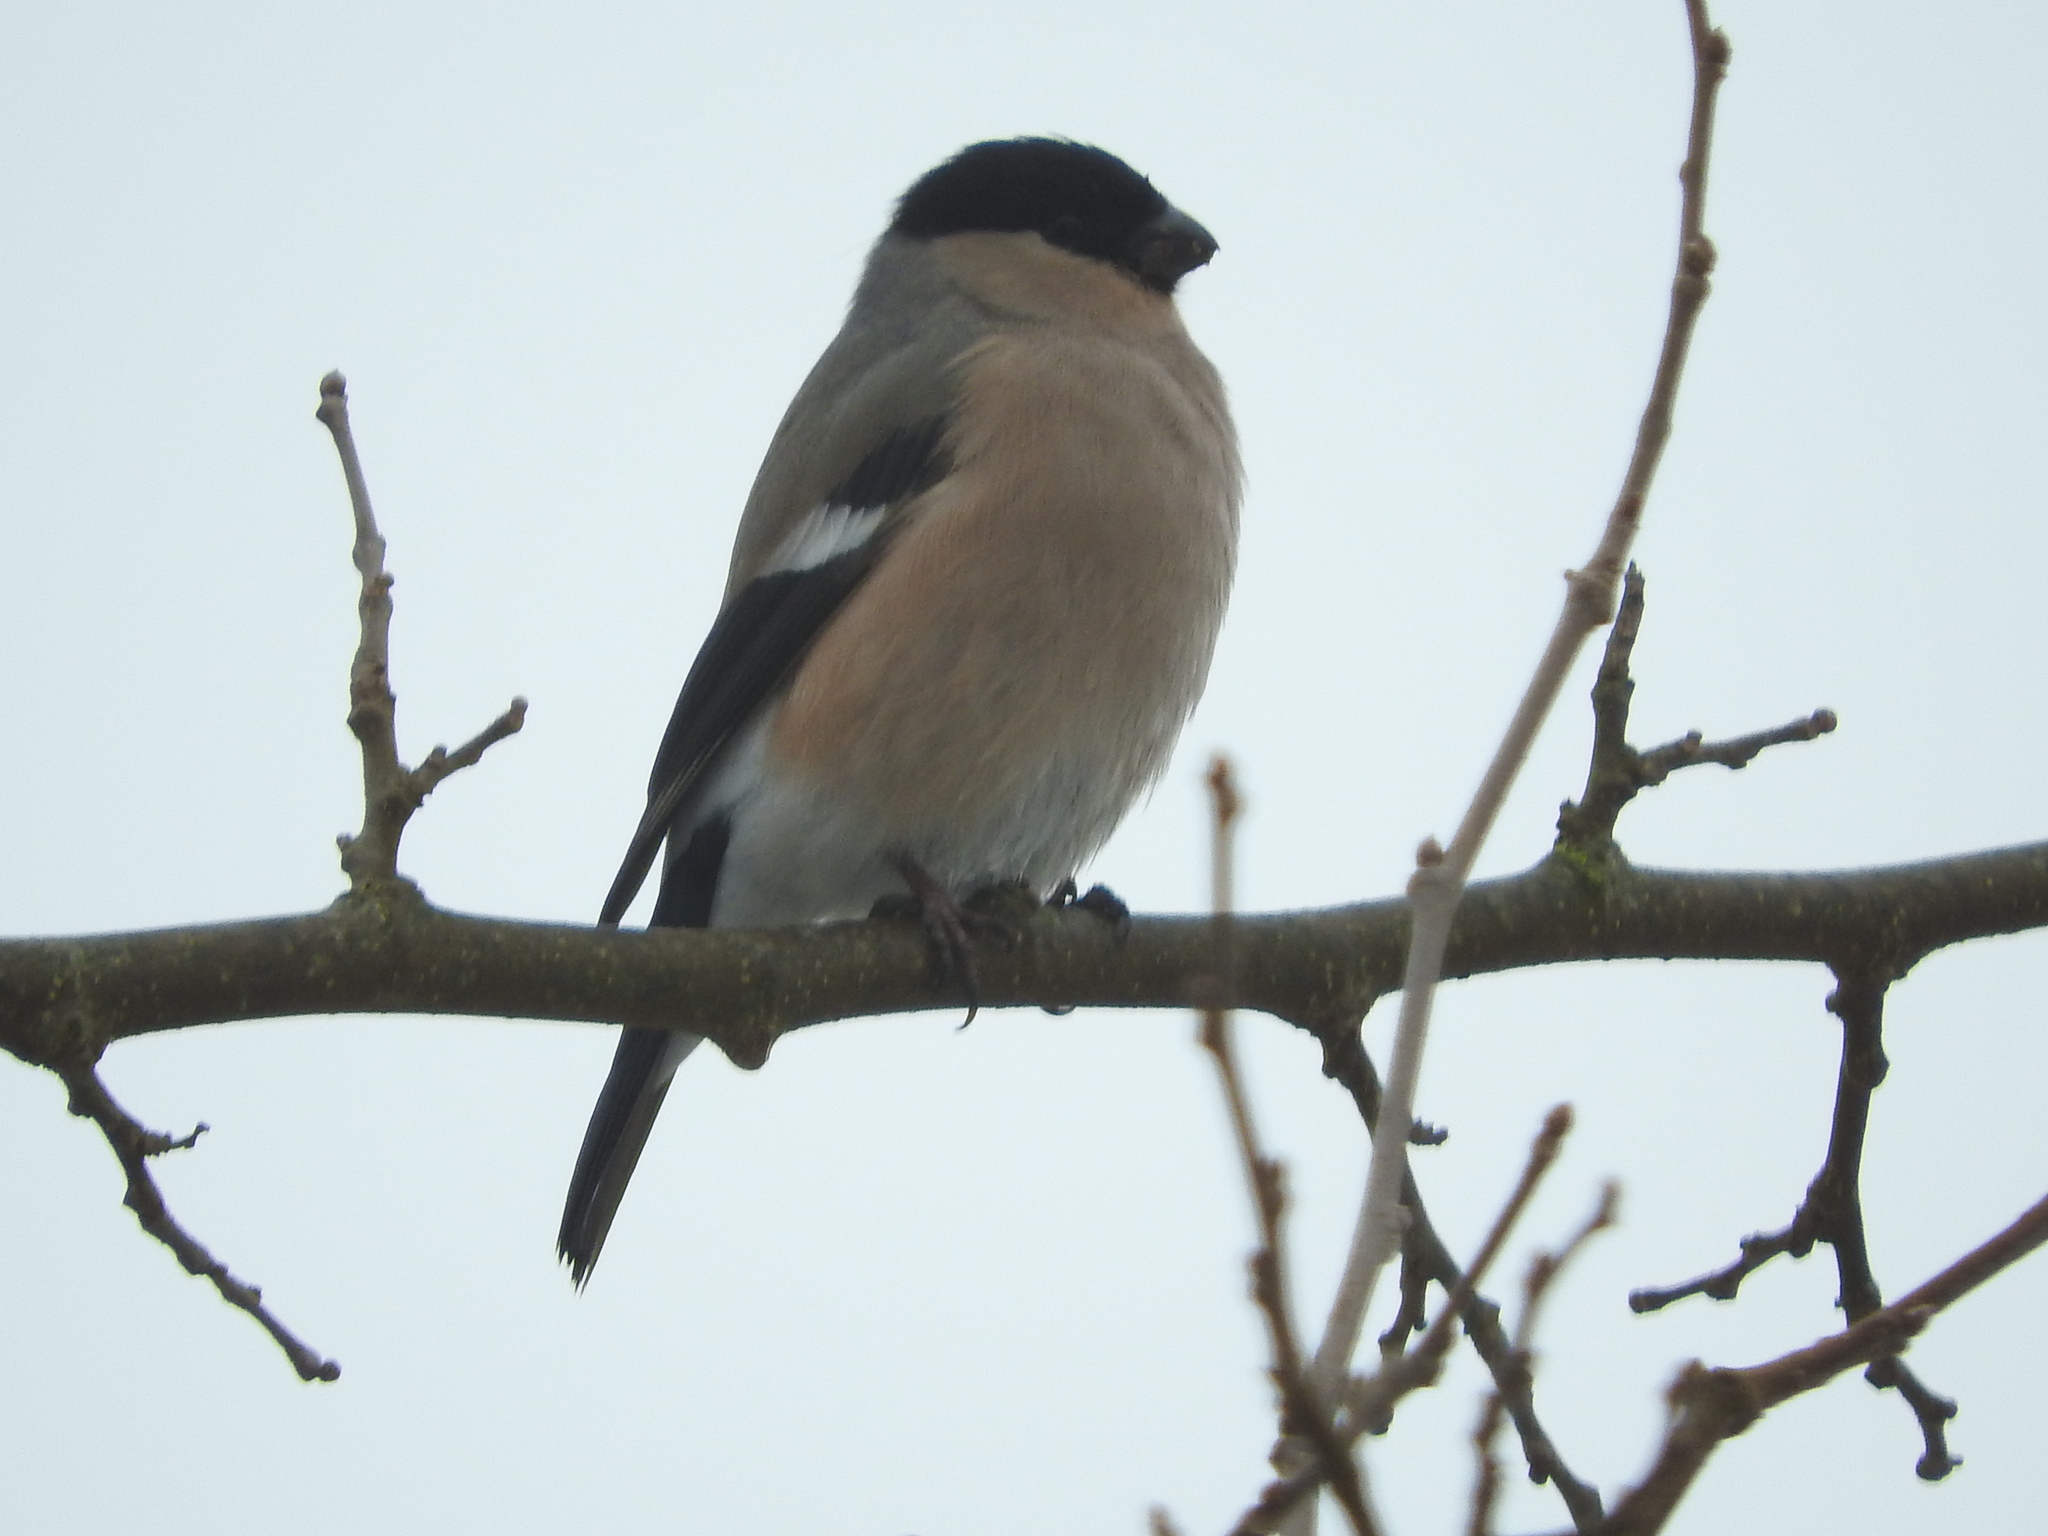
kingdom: Animalia
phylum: Chordata
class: Aves
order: Passeriformes
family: Fringillidae
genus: Pyrrhula
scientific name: Pyrrhula pyrrhula
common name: Eurasian bullfinch
